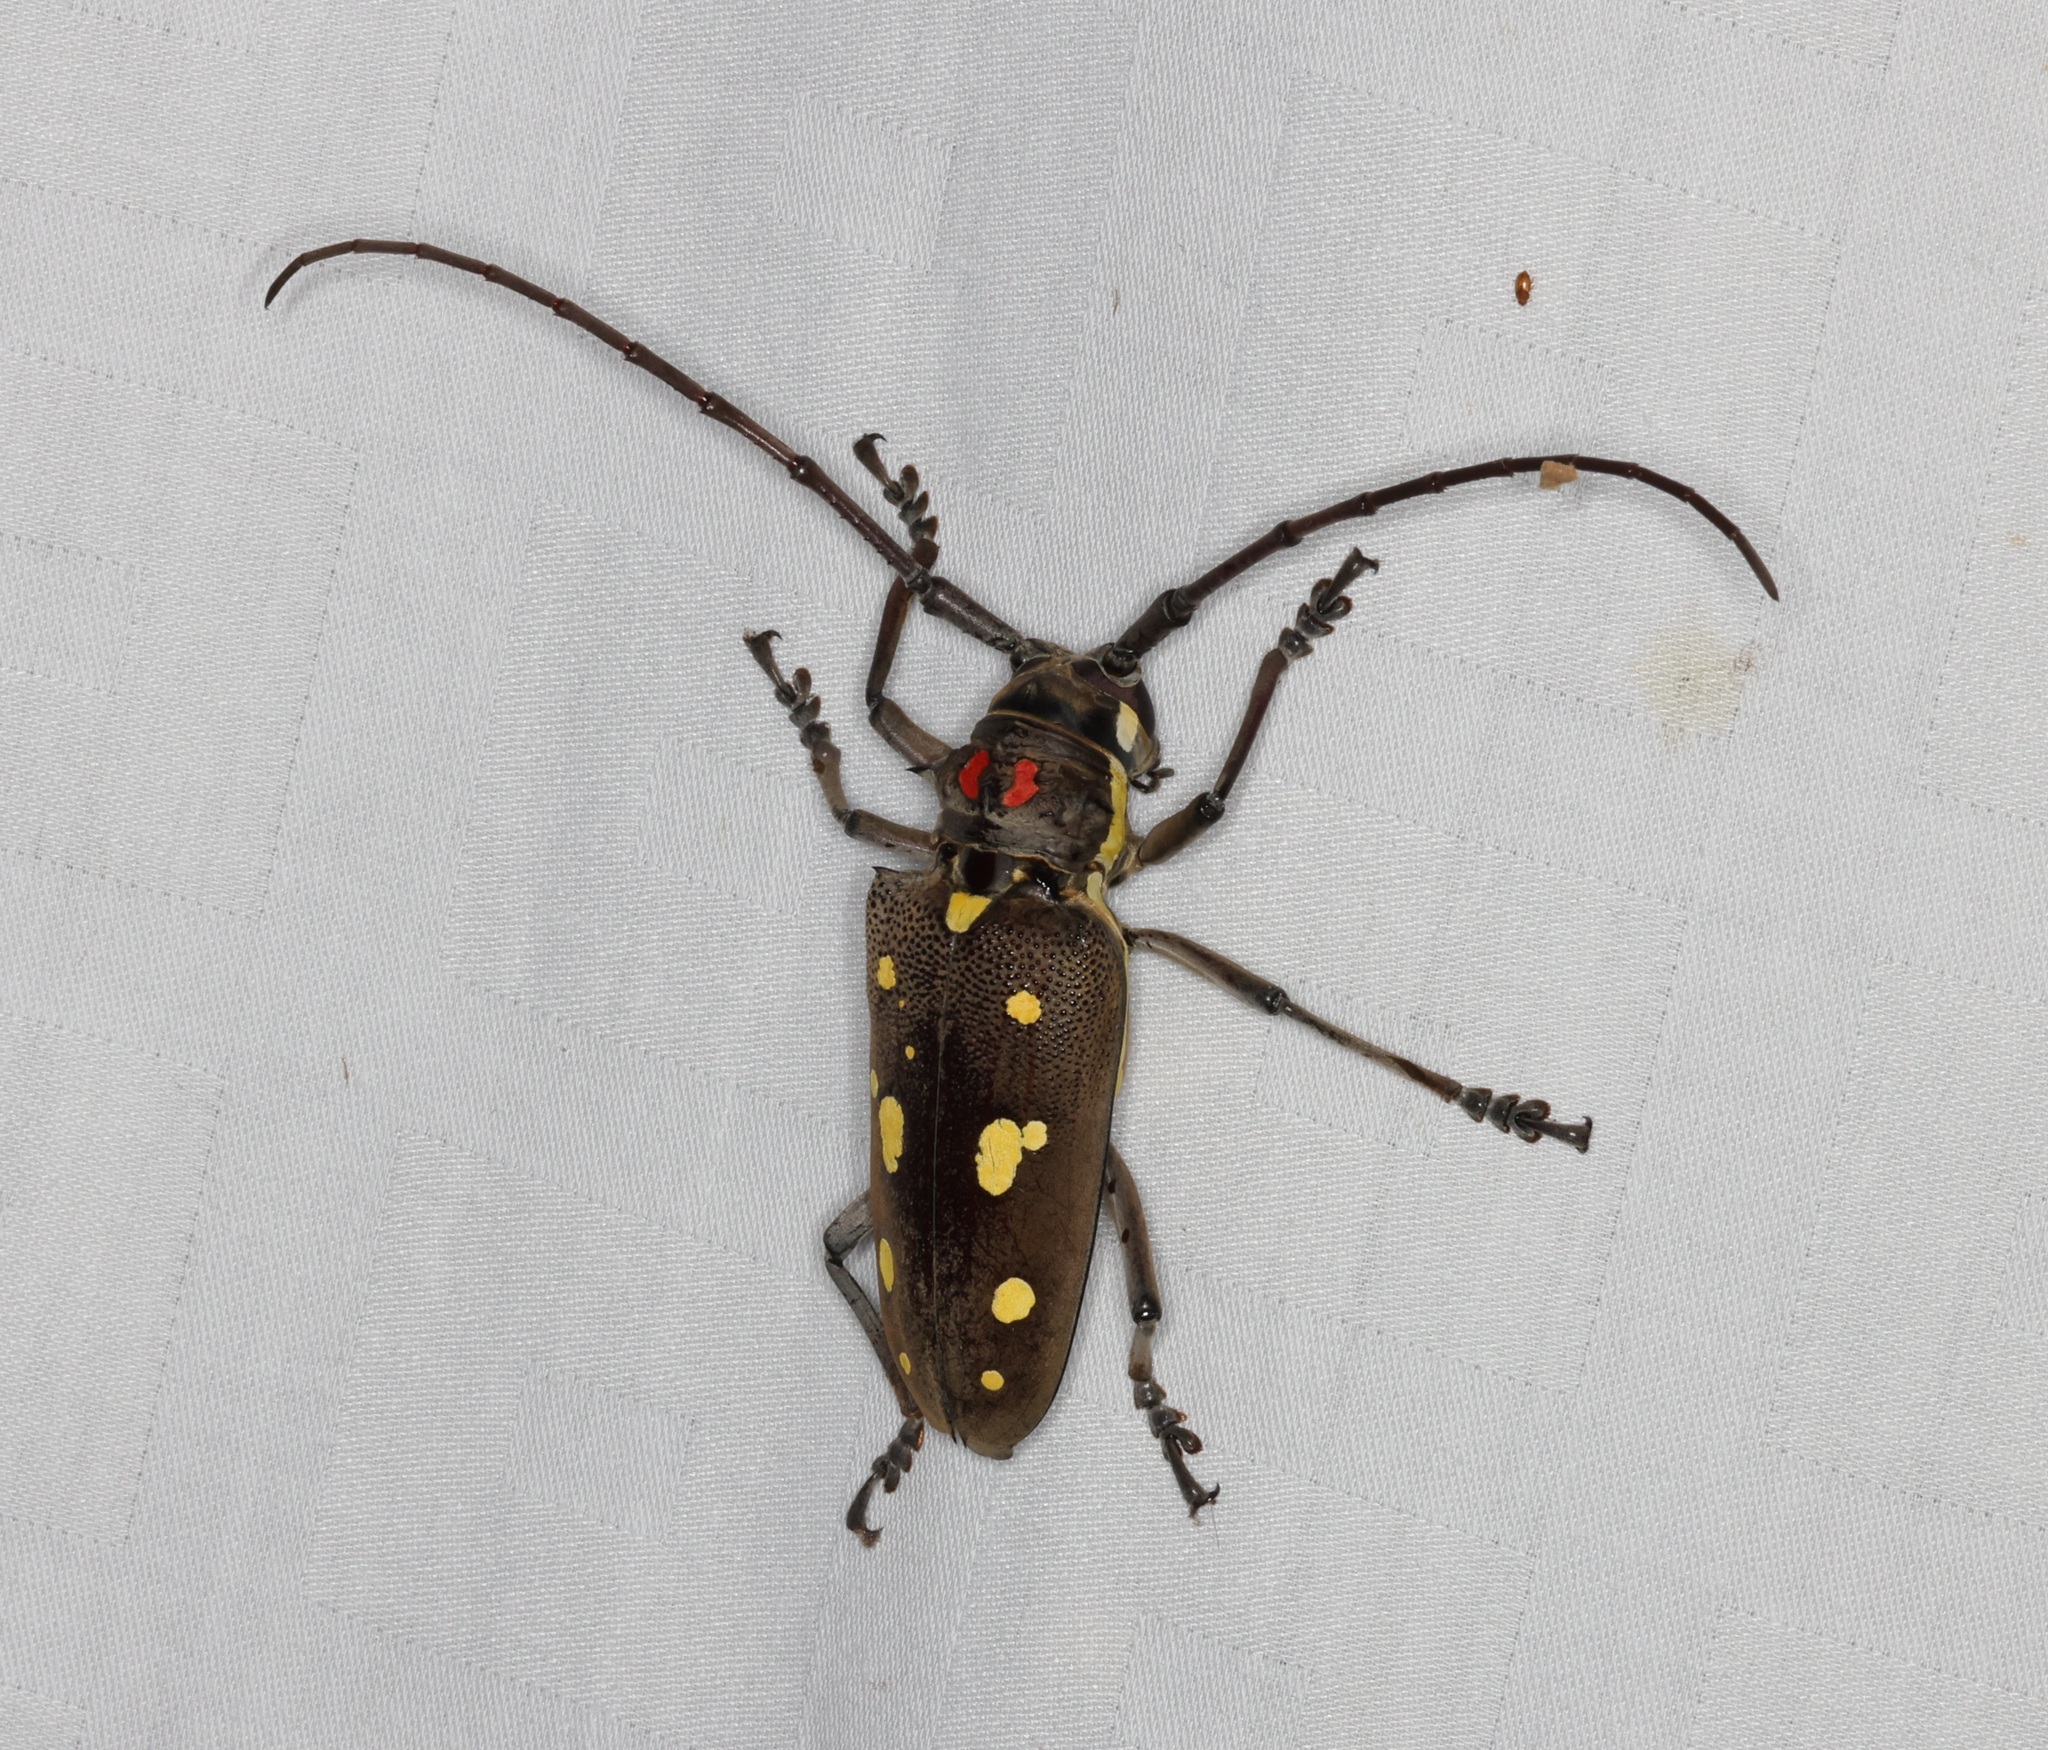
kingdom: Animalia
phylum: Arthropoda
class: Insecta
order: Coleoptera
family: Cerambycidae
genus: Batocera
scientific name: Batocera rubus
